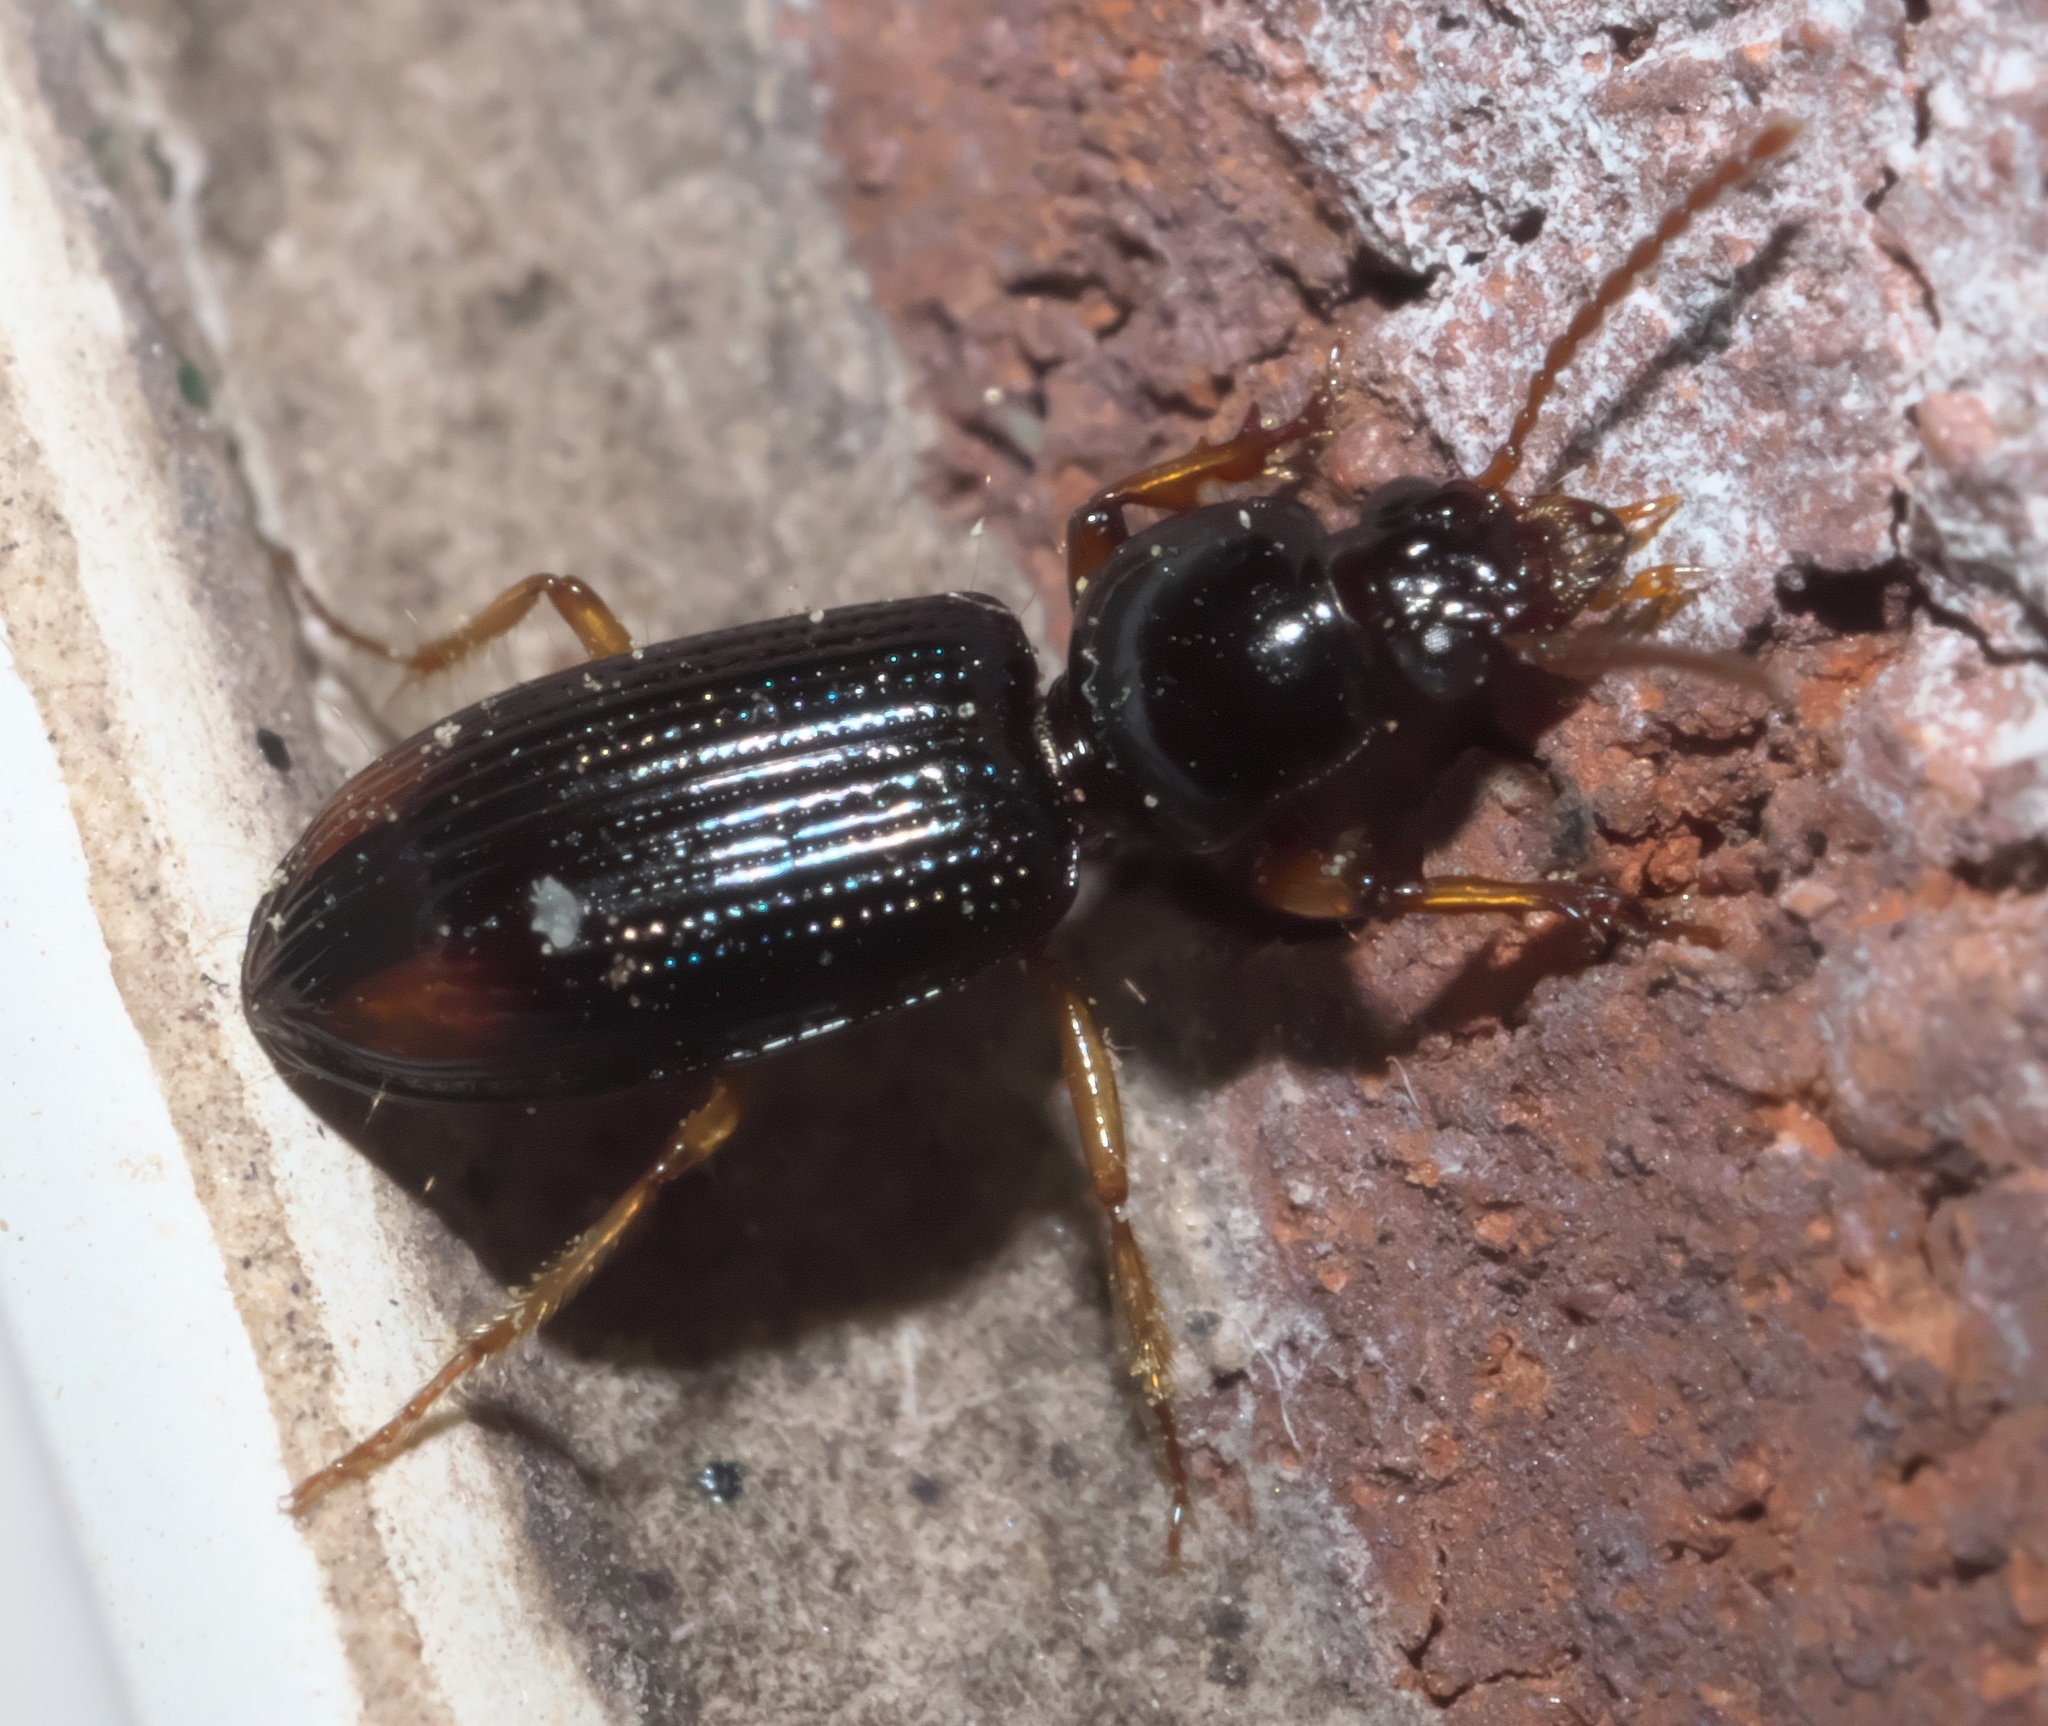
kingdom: Animalia
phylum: Arthropoda
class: Insecta
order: Coleoptera
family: Carabidae
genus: Aspidoglossa
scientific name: Aspidoglossa subangulata
